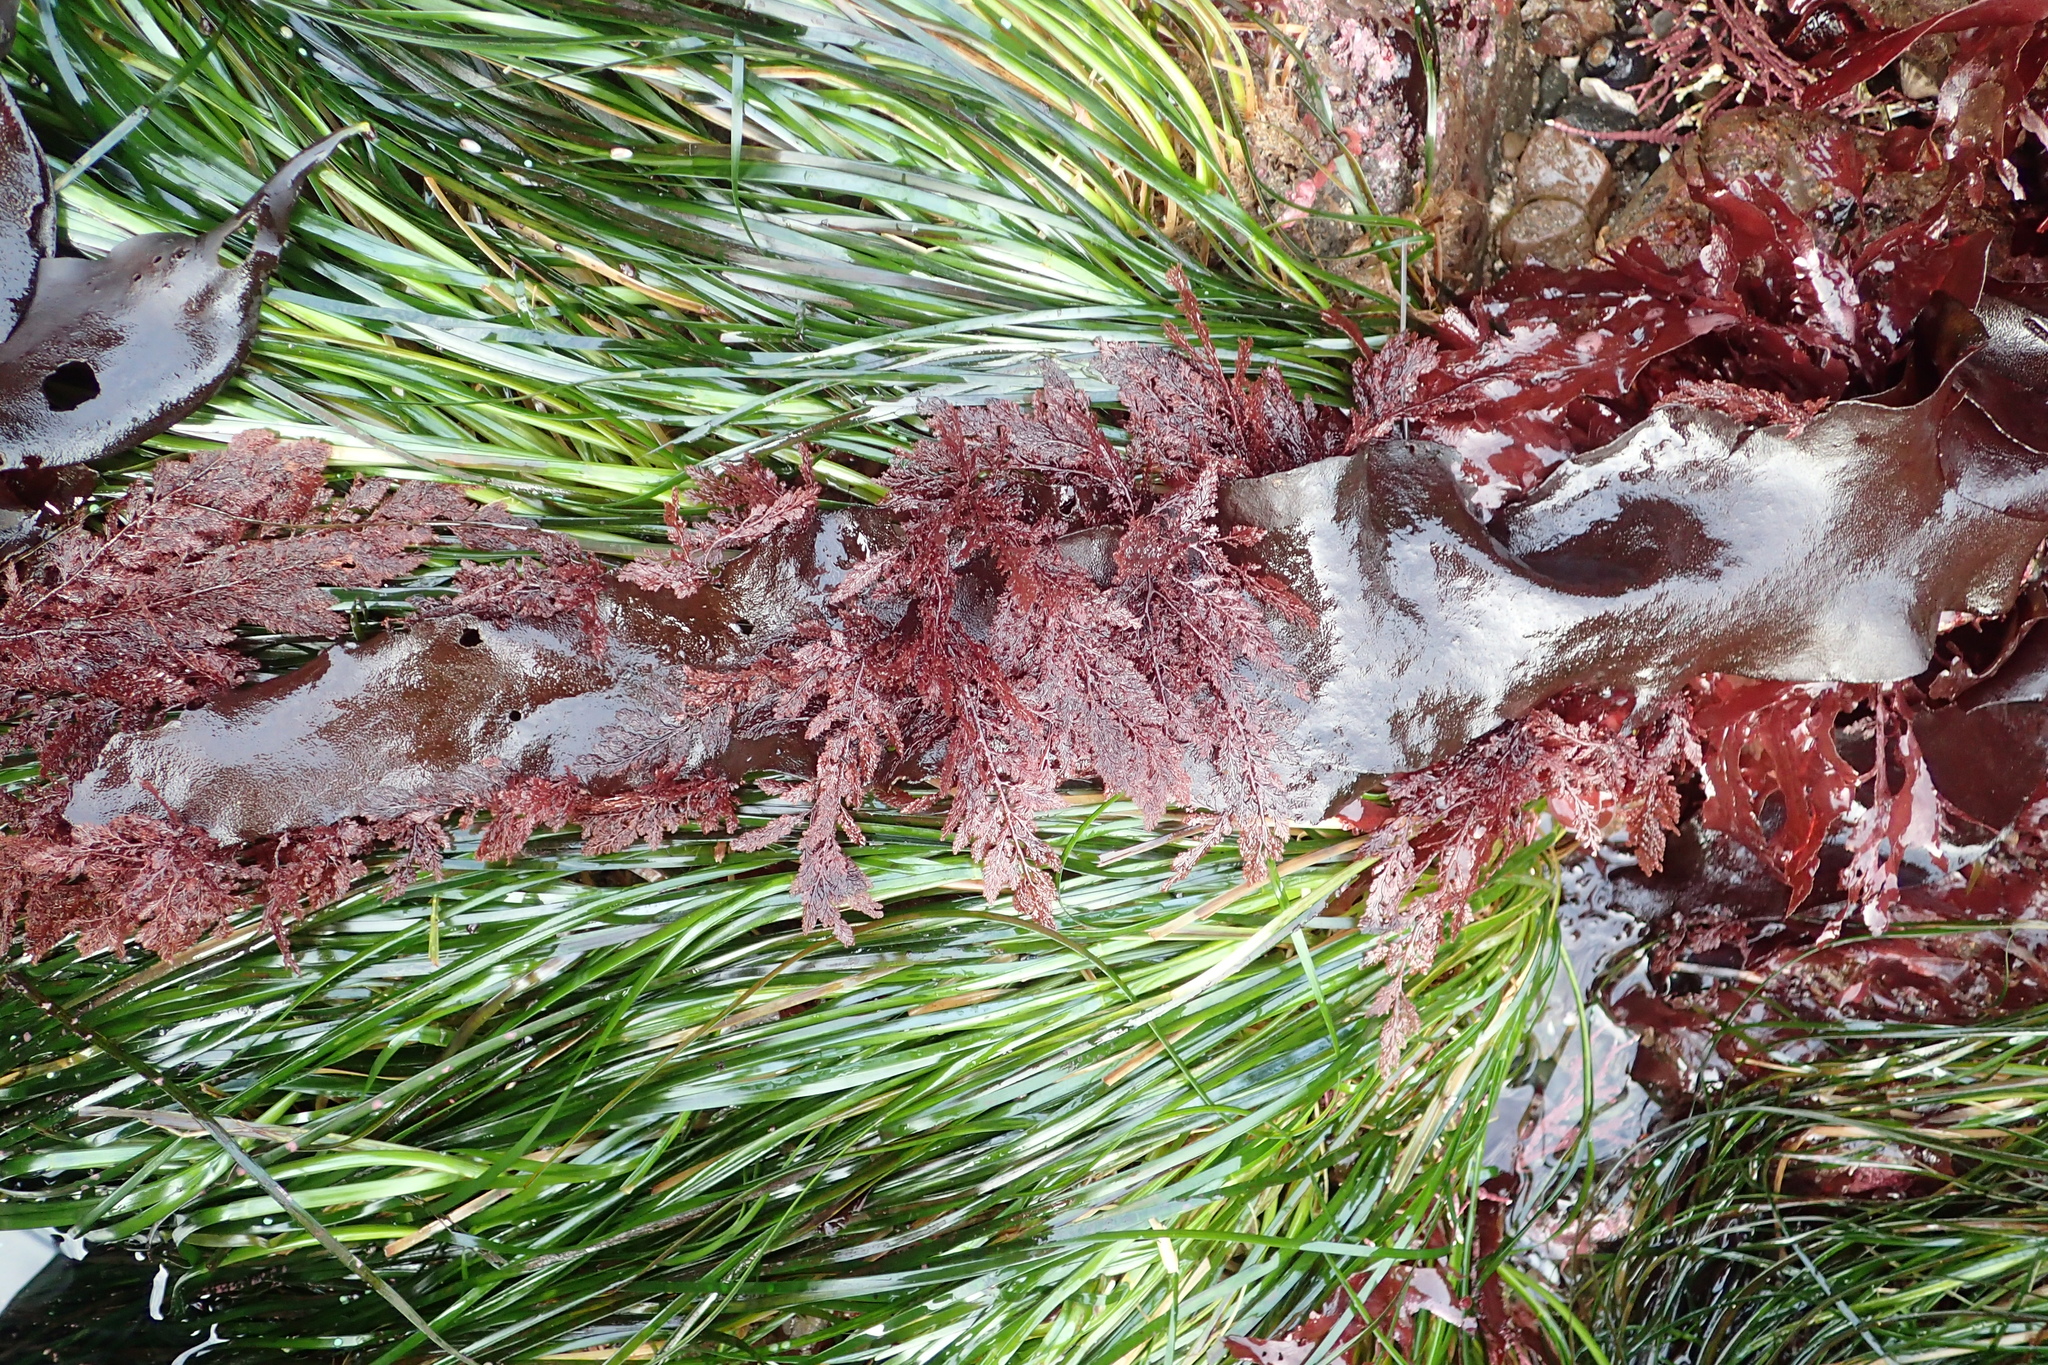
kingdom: Plantae
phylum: Rhodophyta
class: Florideophyceae
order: Ceramiales
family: Ceramiaceae
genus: Microcladia
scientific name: Microcladia coulteri
